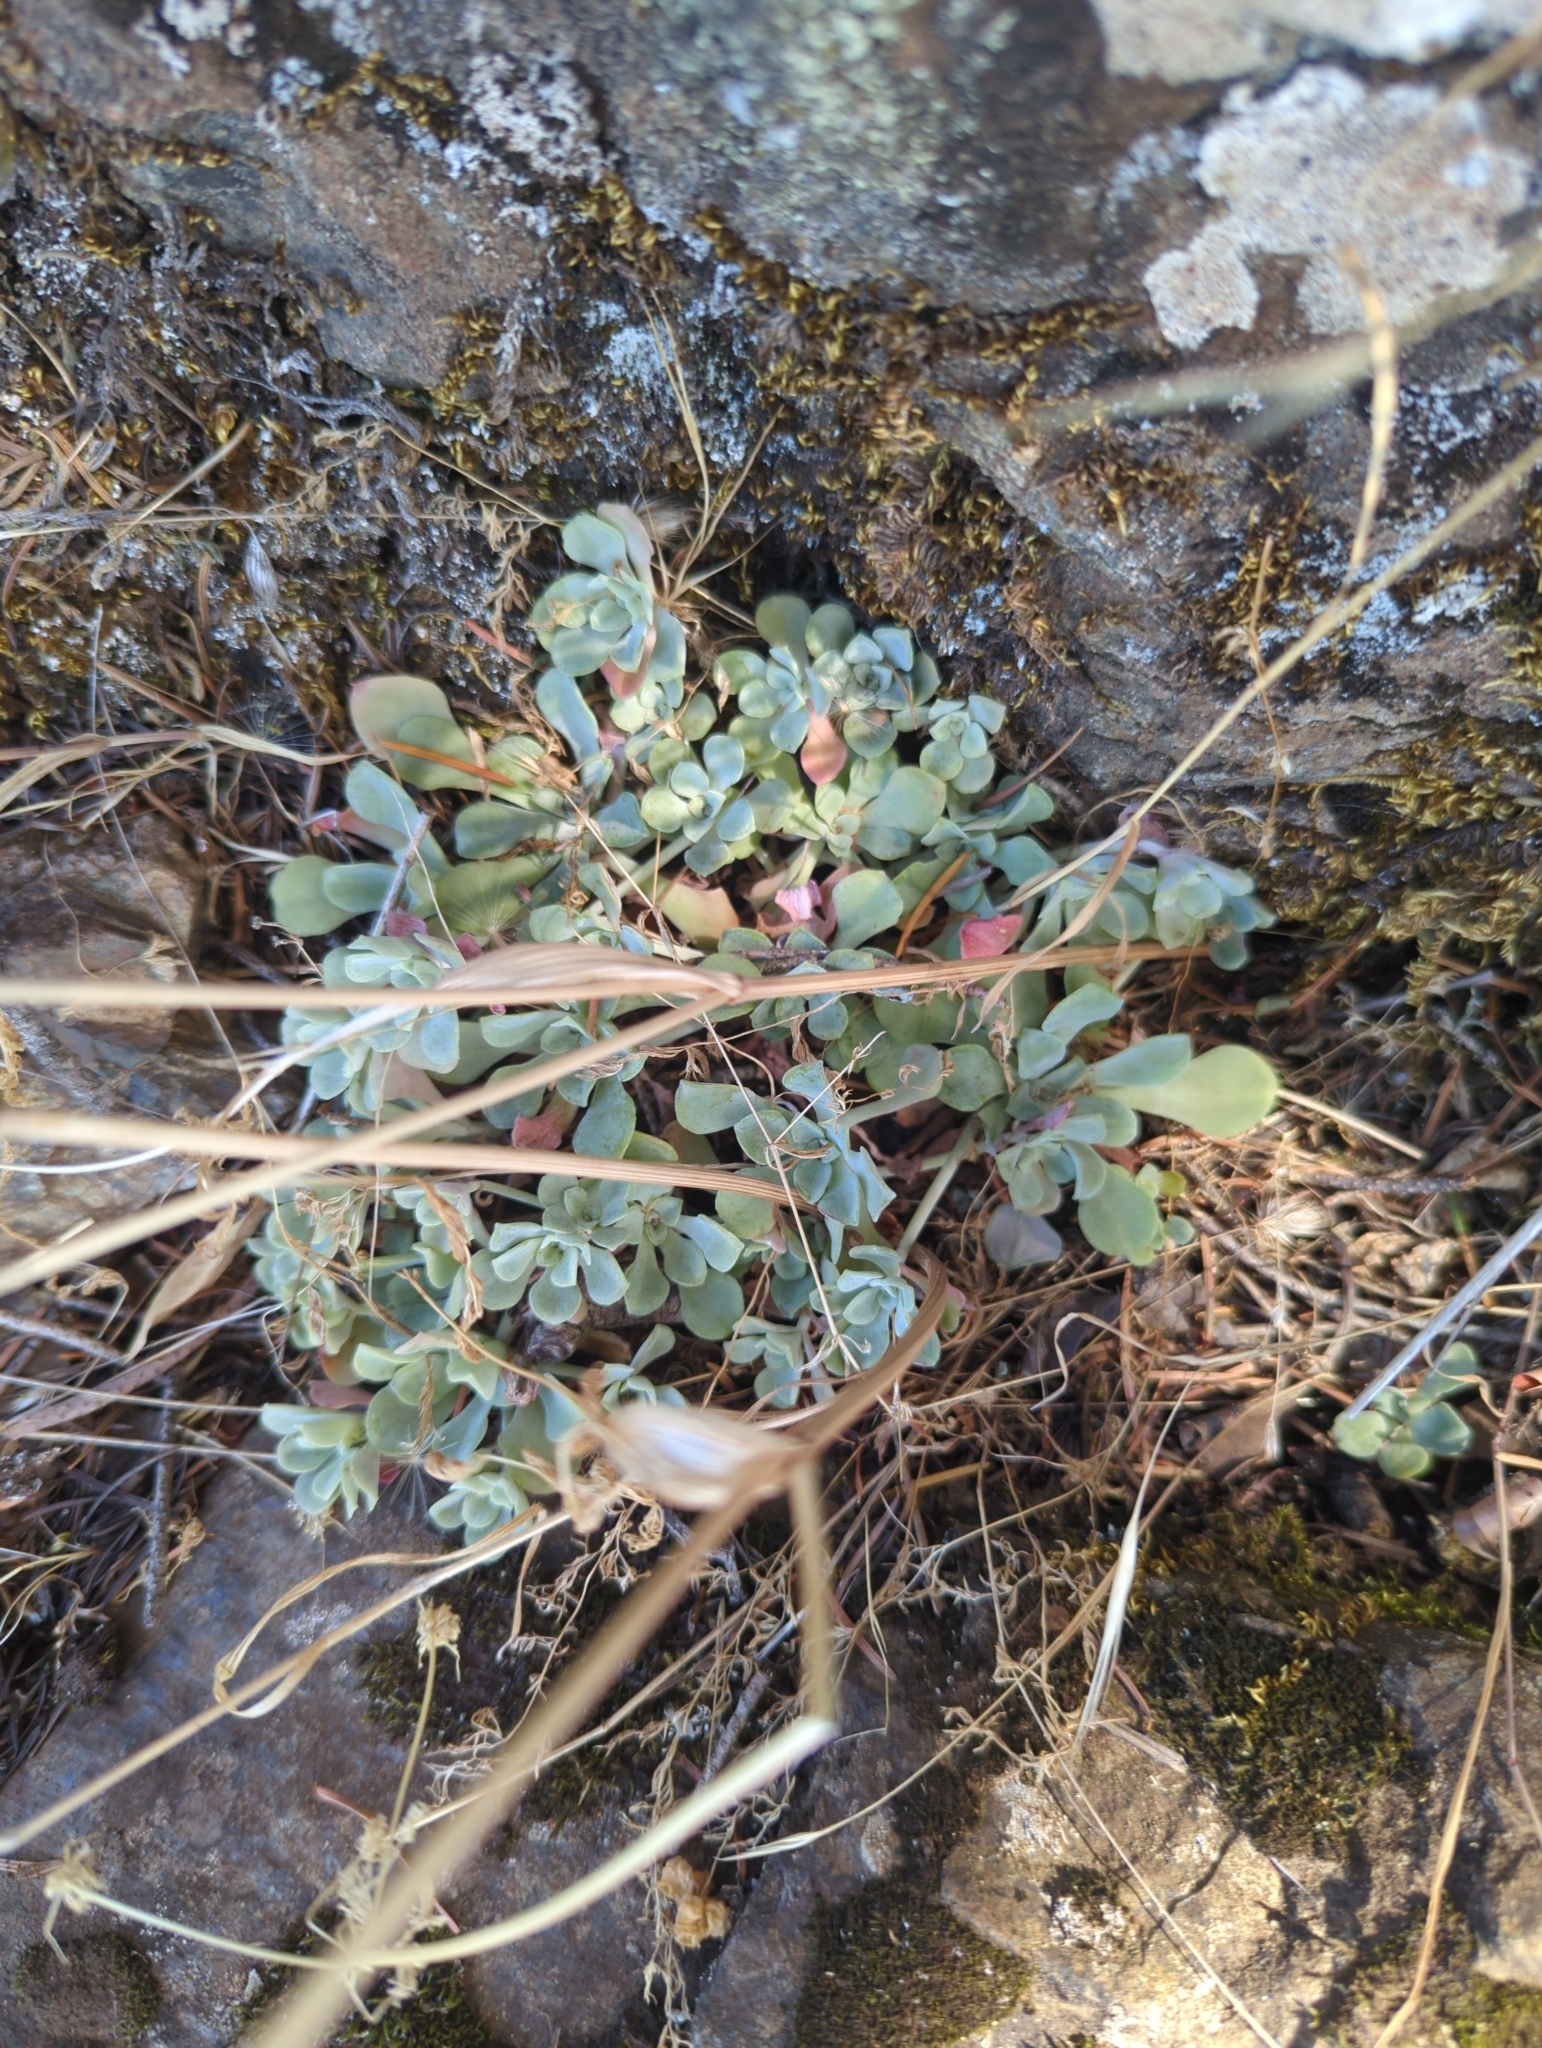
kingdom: Plantae
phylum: Tracheophyta
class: Magnoliopsida
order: Saxifragales
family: Crassulaceae
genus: Sedum
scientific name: Sedum spathulifolium
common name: Colorado stonecrop
